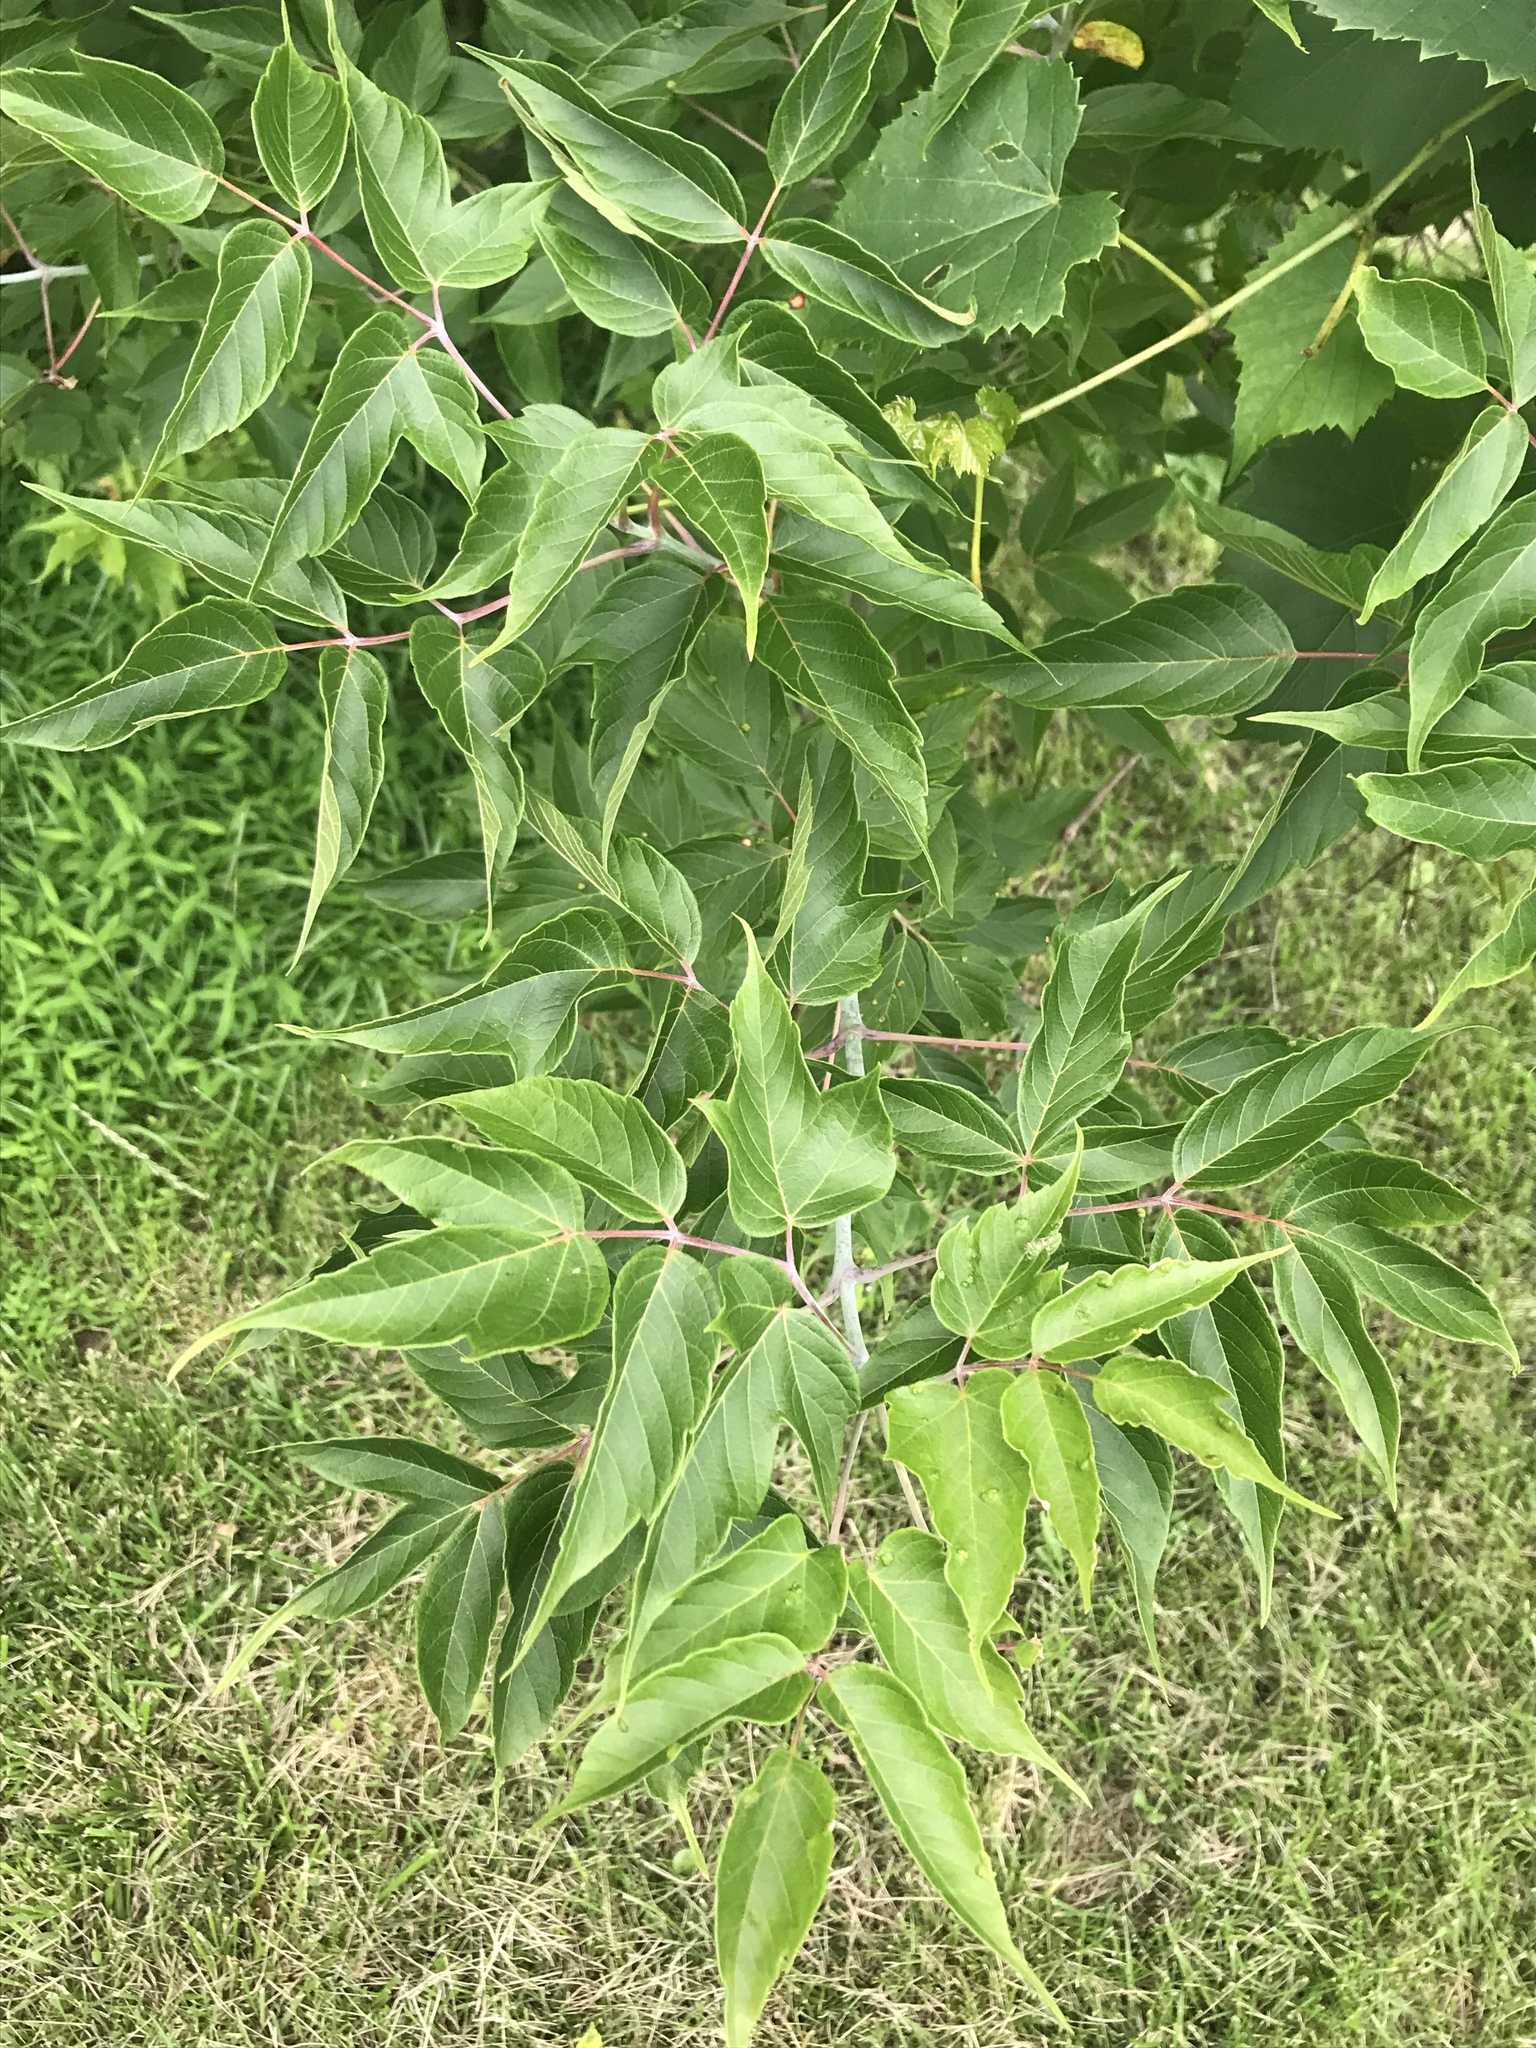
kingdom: Plantae
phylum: Tracheophyta
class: Magnoliopsida
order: Sapindales
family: Sapindaceae
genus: Acer
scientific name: Acer negundo
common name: Ashleaf maple
